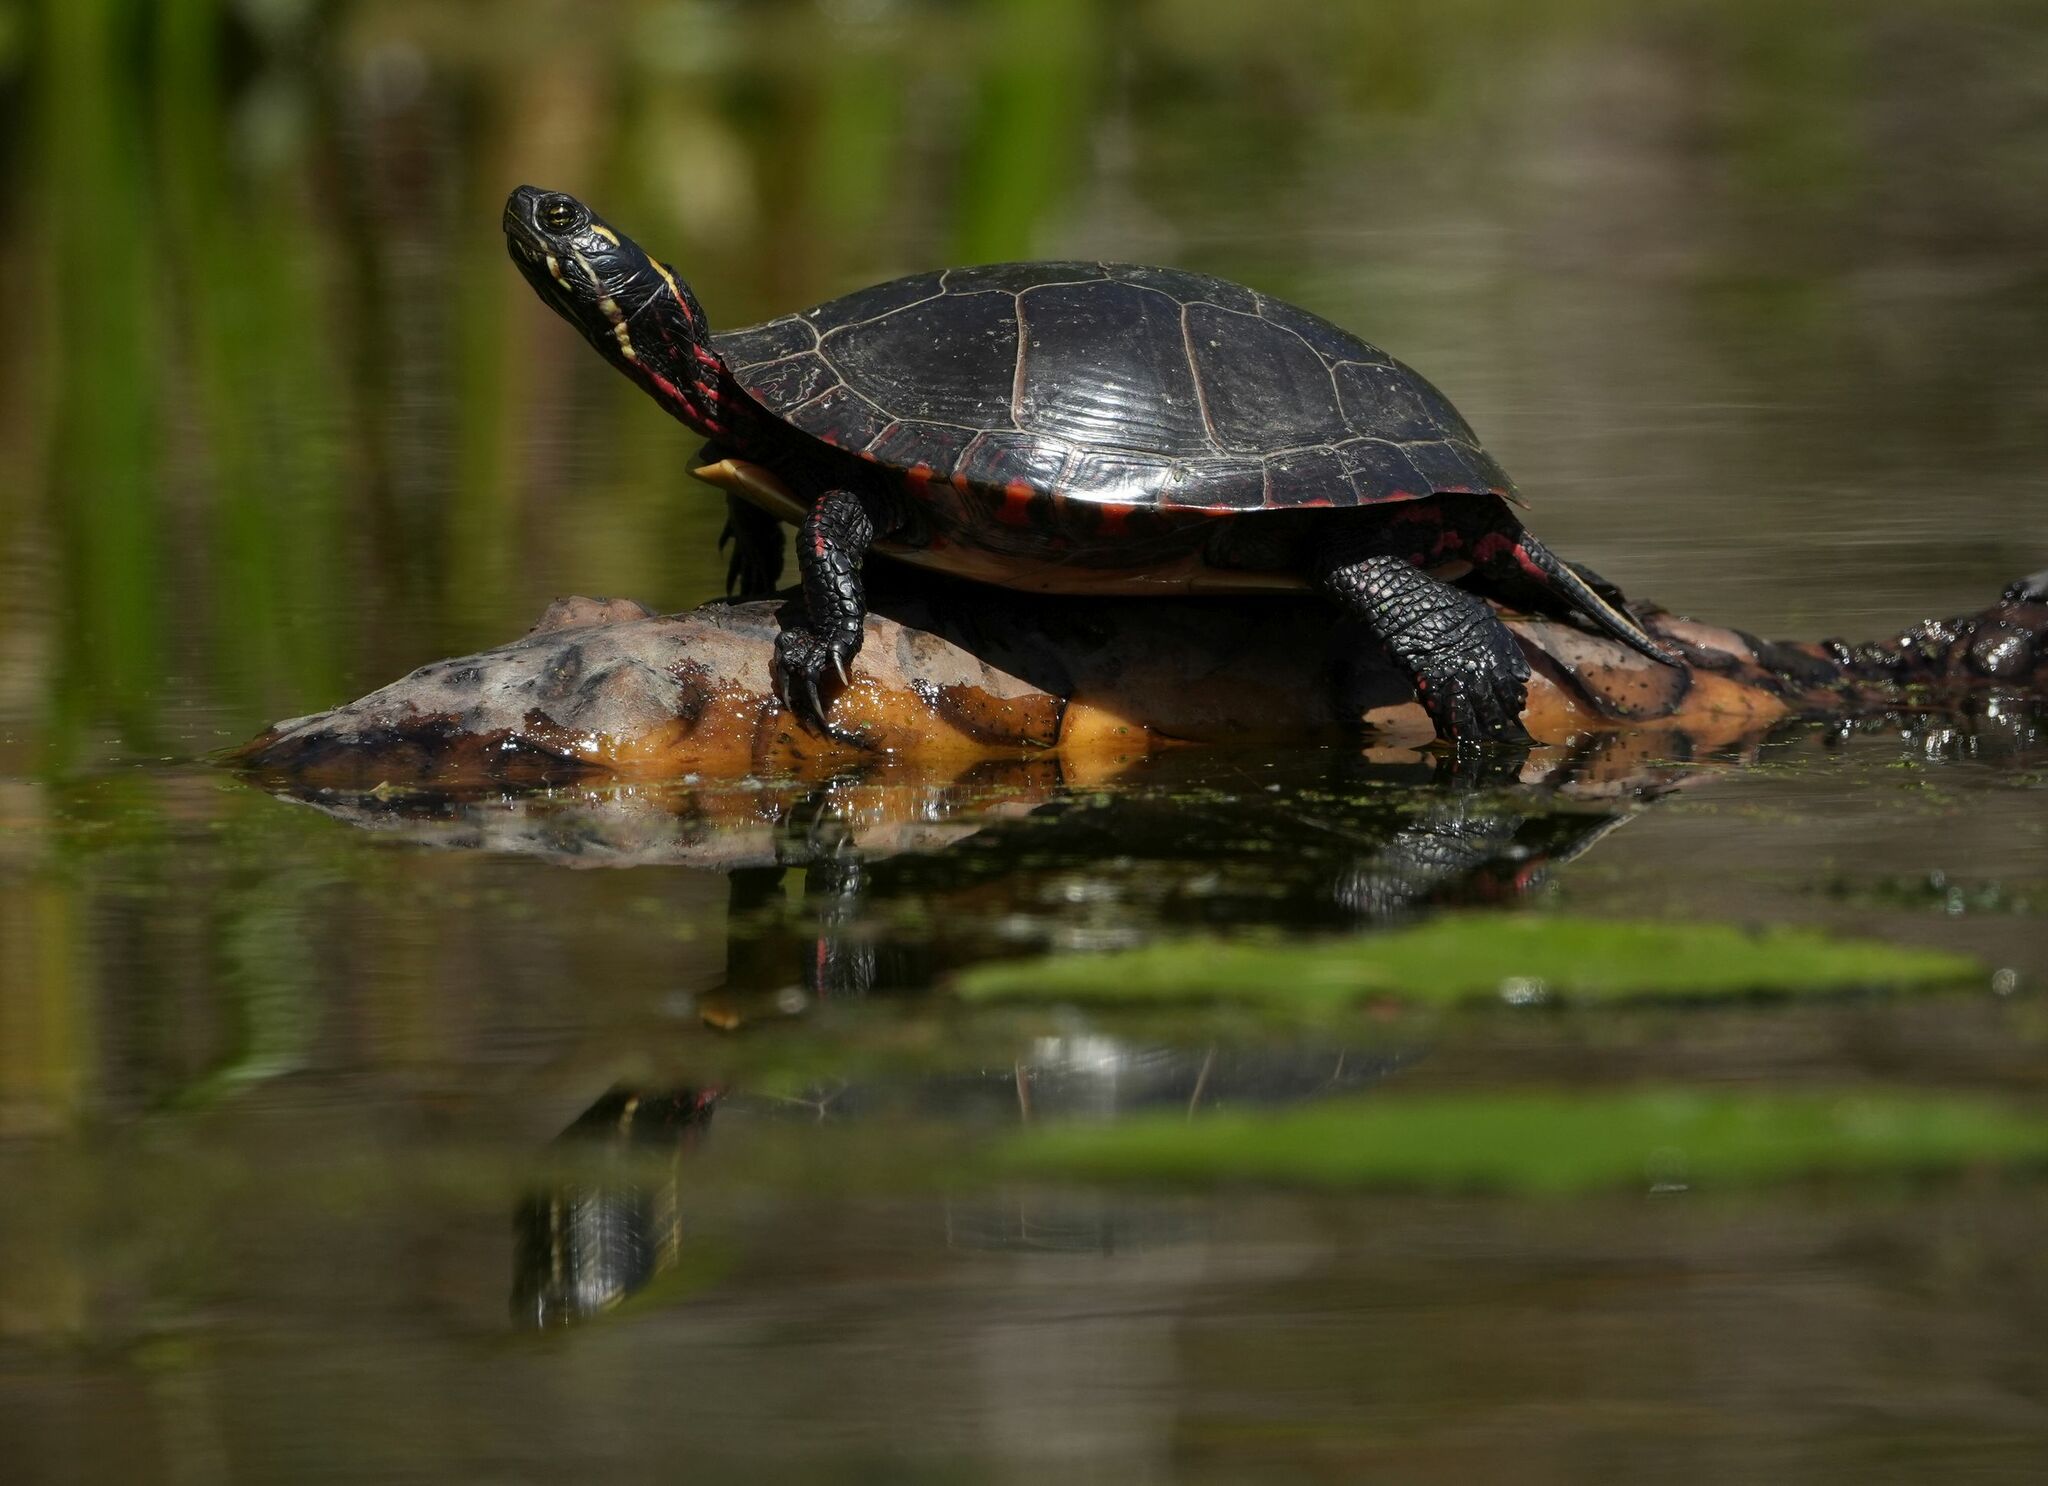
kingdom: Animalia
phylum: Chordata
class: Testudines
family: Emydidae
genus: Chrysemys
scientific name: Chrysemys picta
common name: Painted turtle
